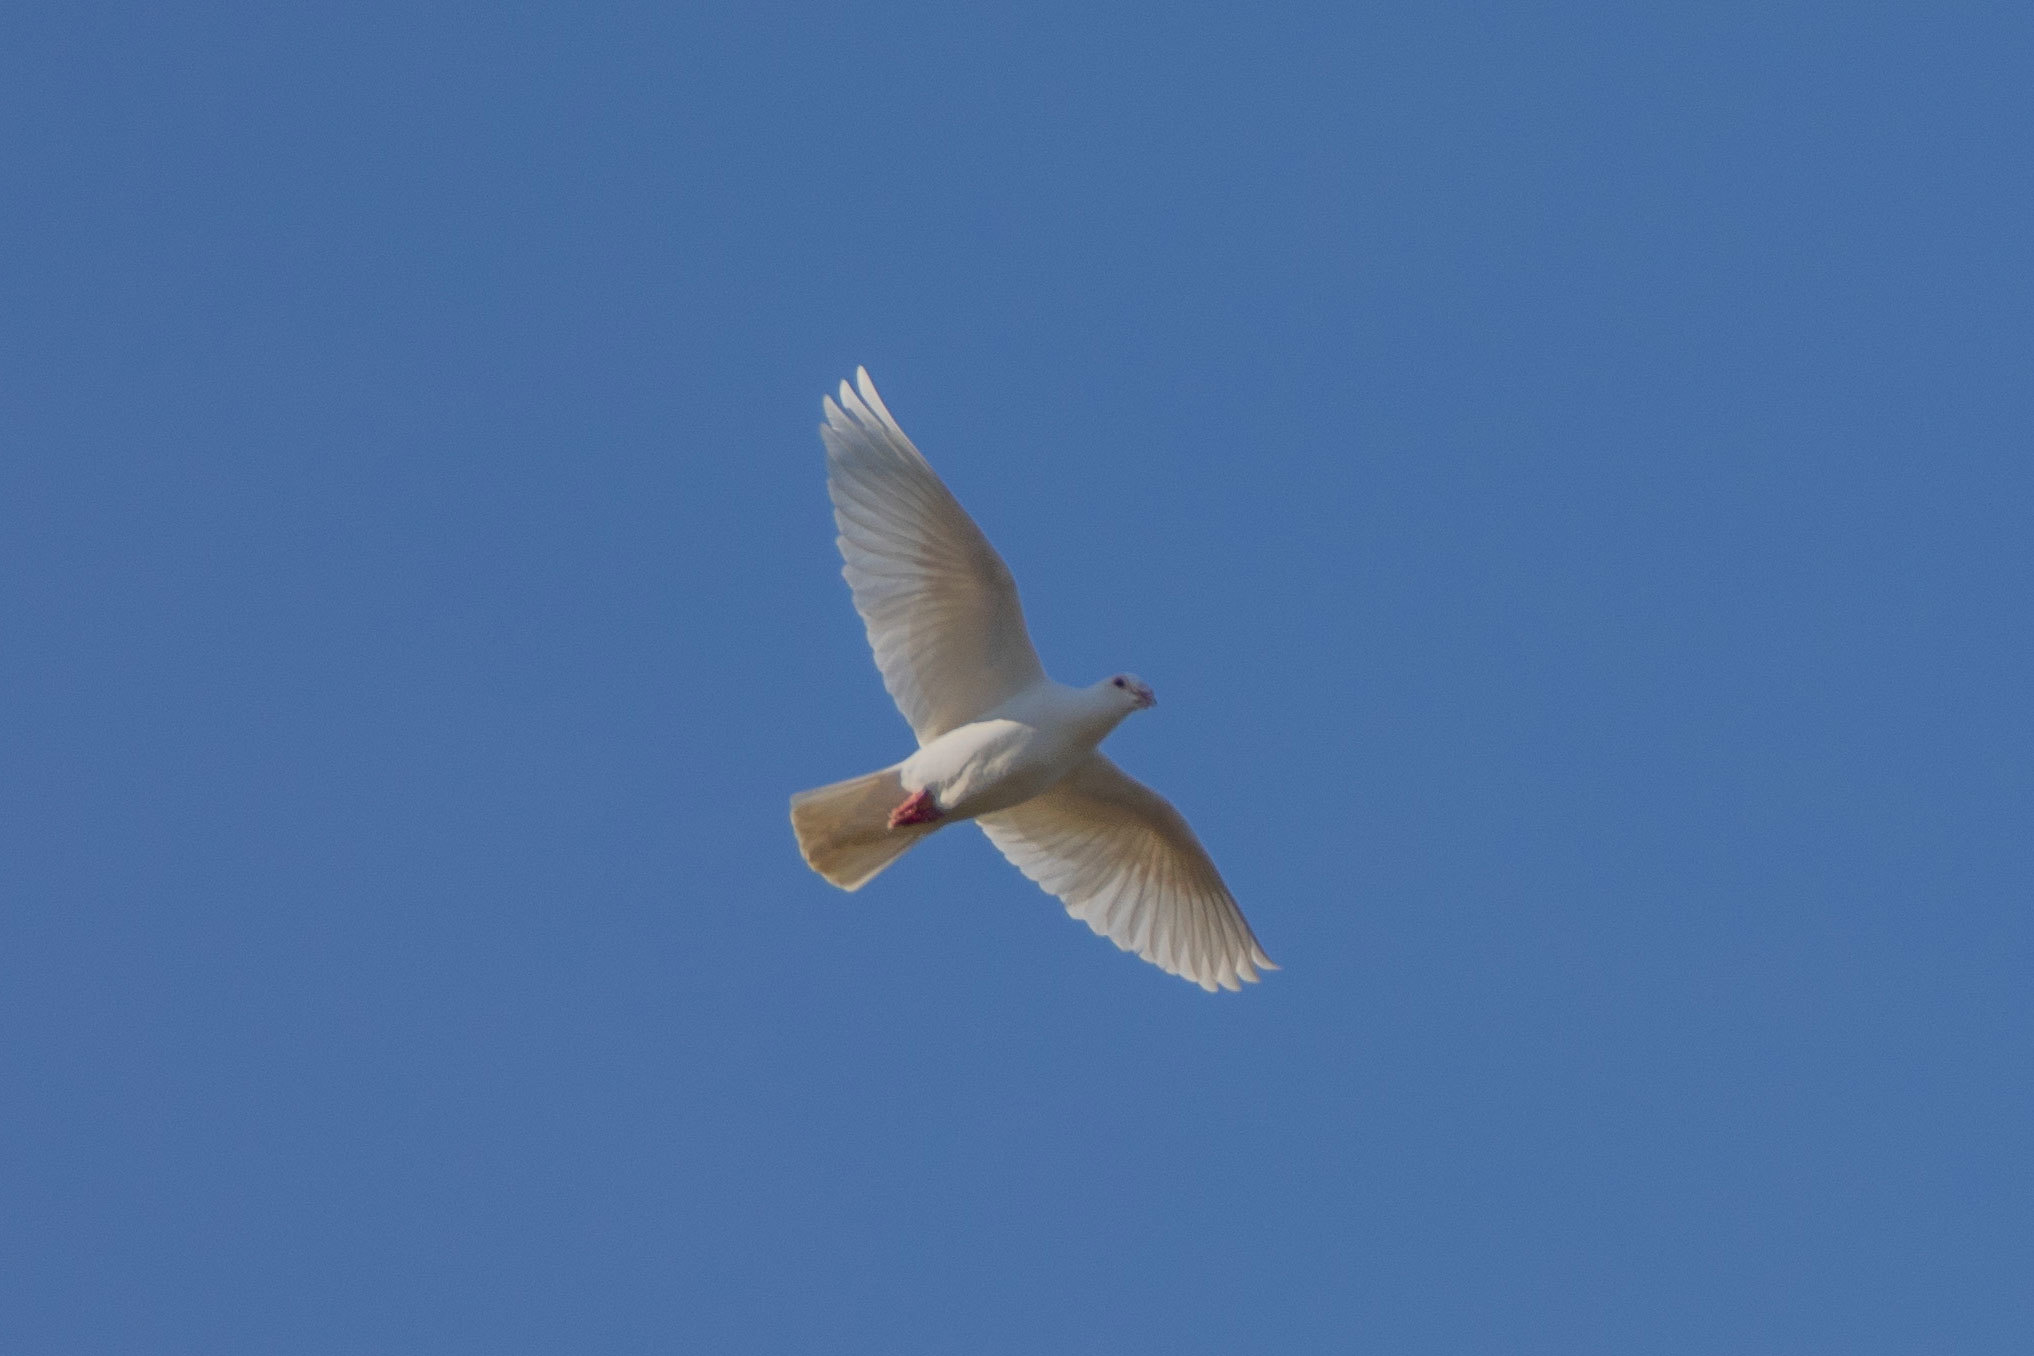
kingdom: Animalia
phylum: Chordata
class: Aves
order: Columbiformes
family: Columbidae
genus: Columba
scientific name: Columba livia
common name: Rock pigeon
